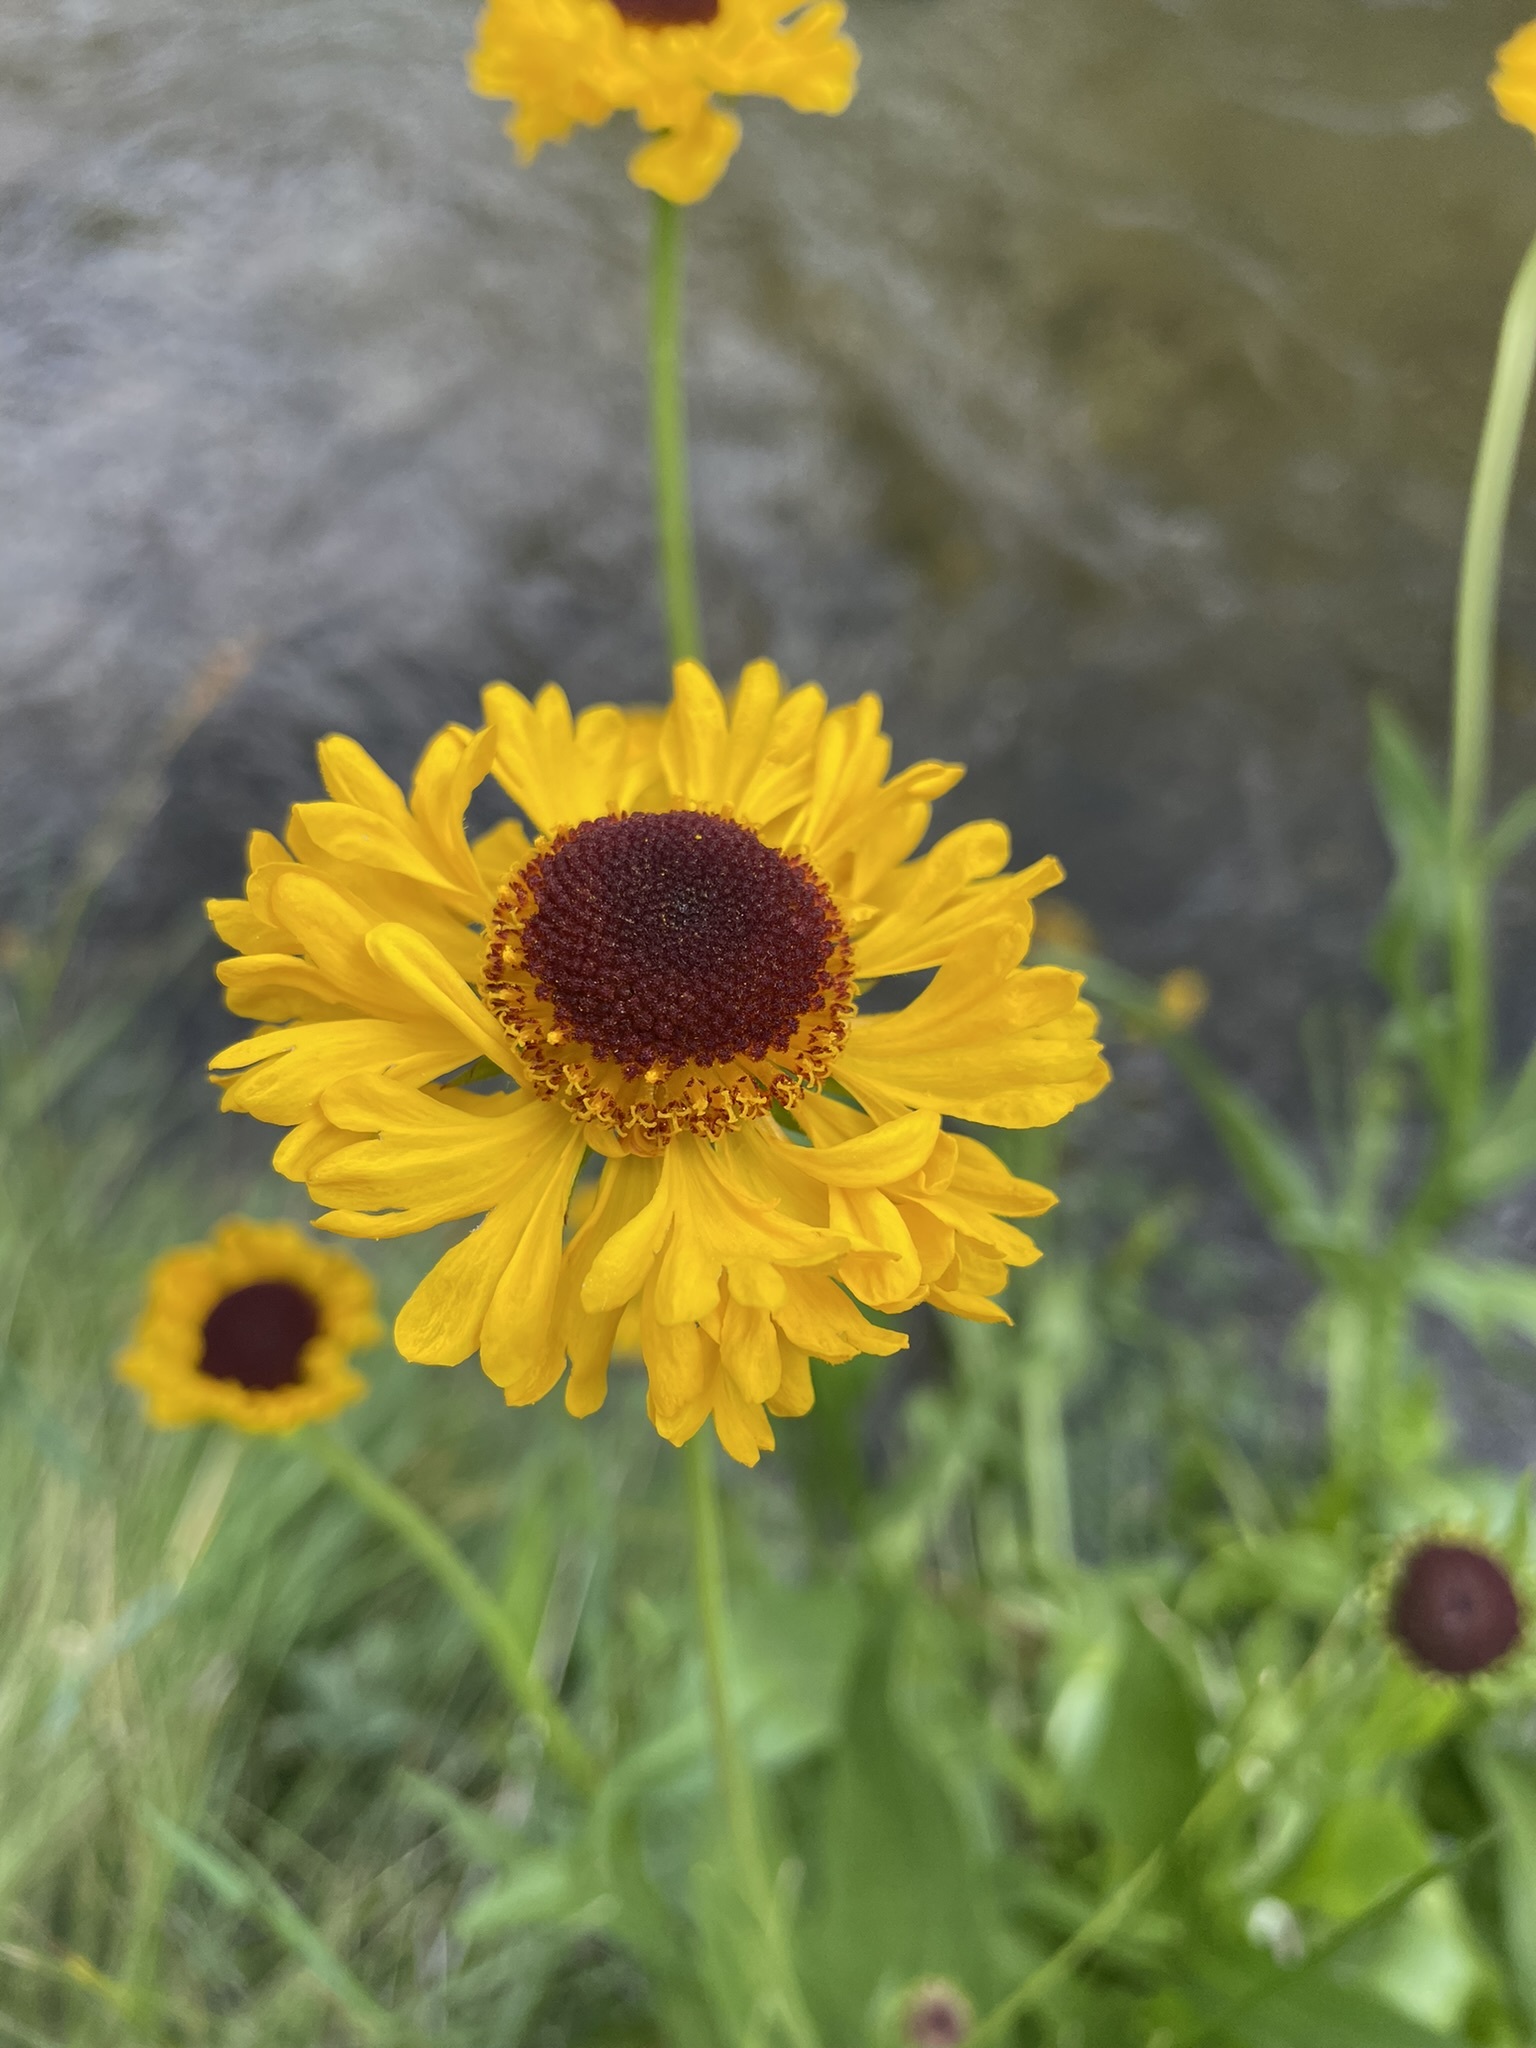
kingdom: Plantae
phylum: Tracheophyta
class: Magnoliopsida
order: Asterales
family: Asteraceae
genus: Helenium
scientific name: Helenium bigelovii
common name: Bigelow's sneezeweed
